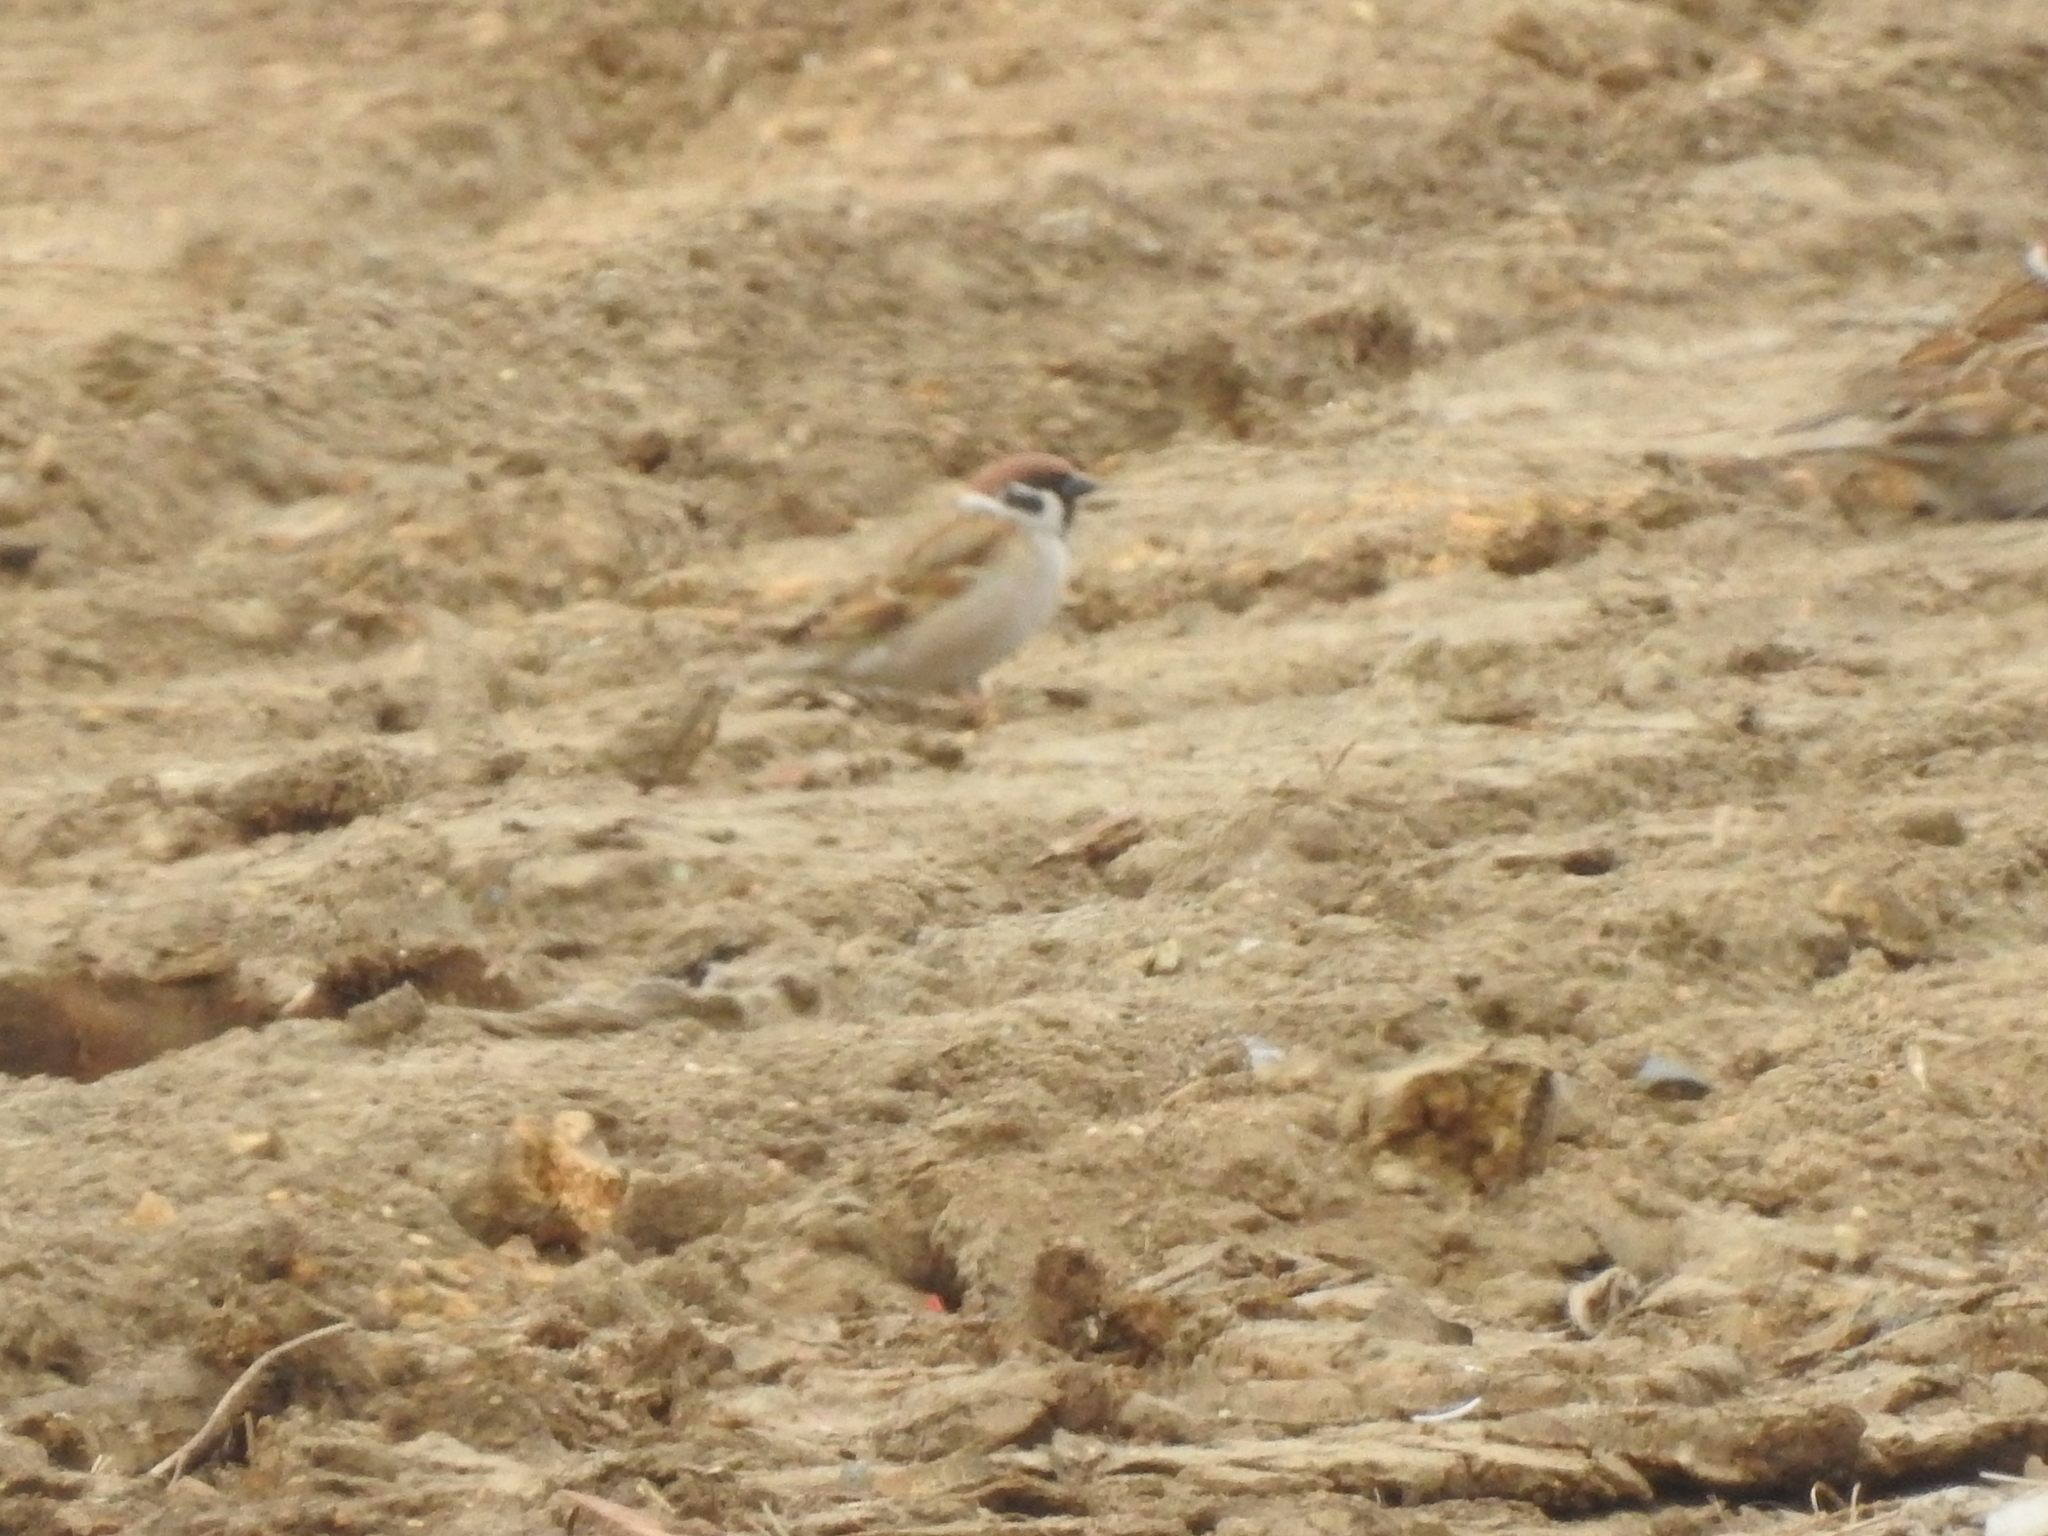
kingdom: Animalia
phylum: Chordata
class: Aves
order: Passeriformes
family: Passeridae
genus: Passer
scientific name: Passer montanus
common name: Eurasian tree sparrow
